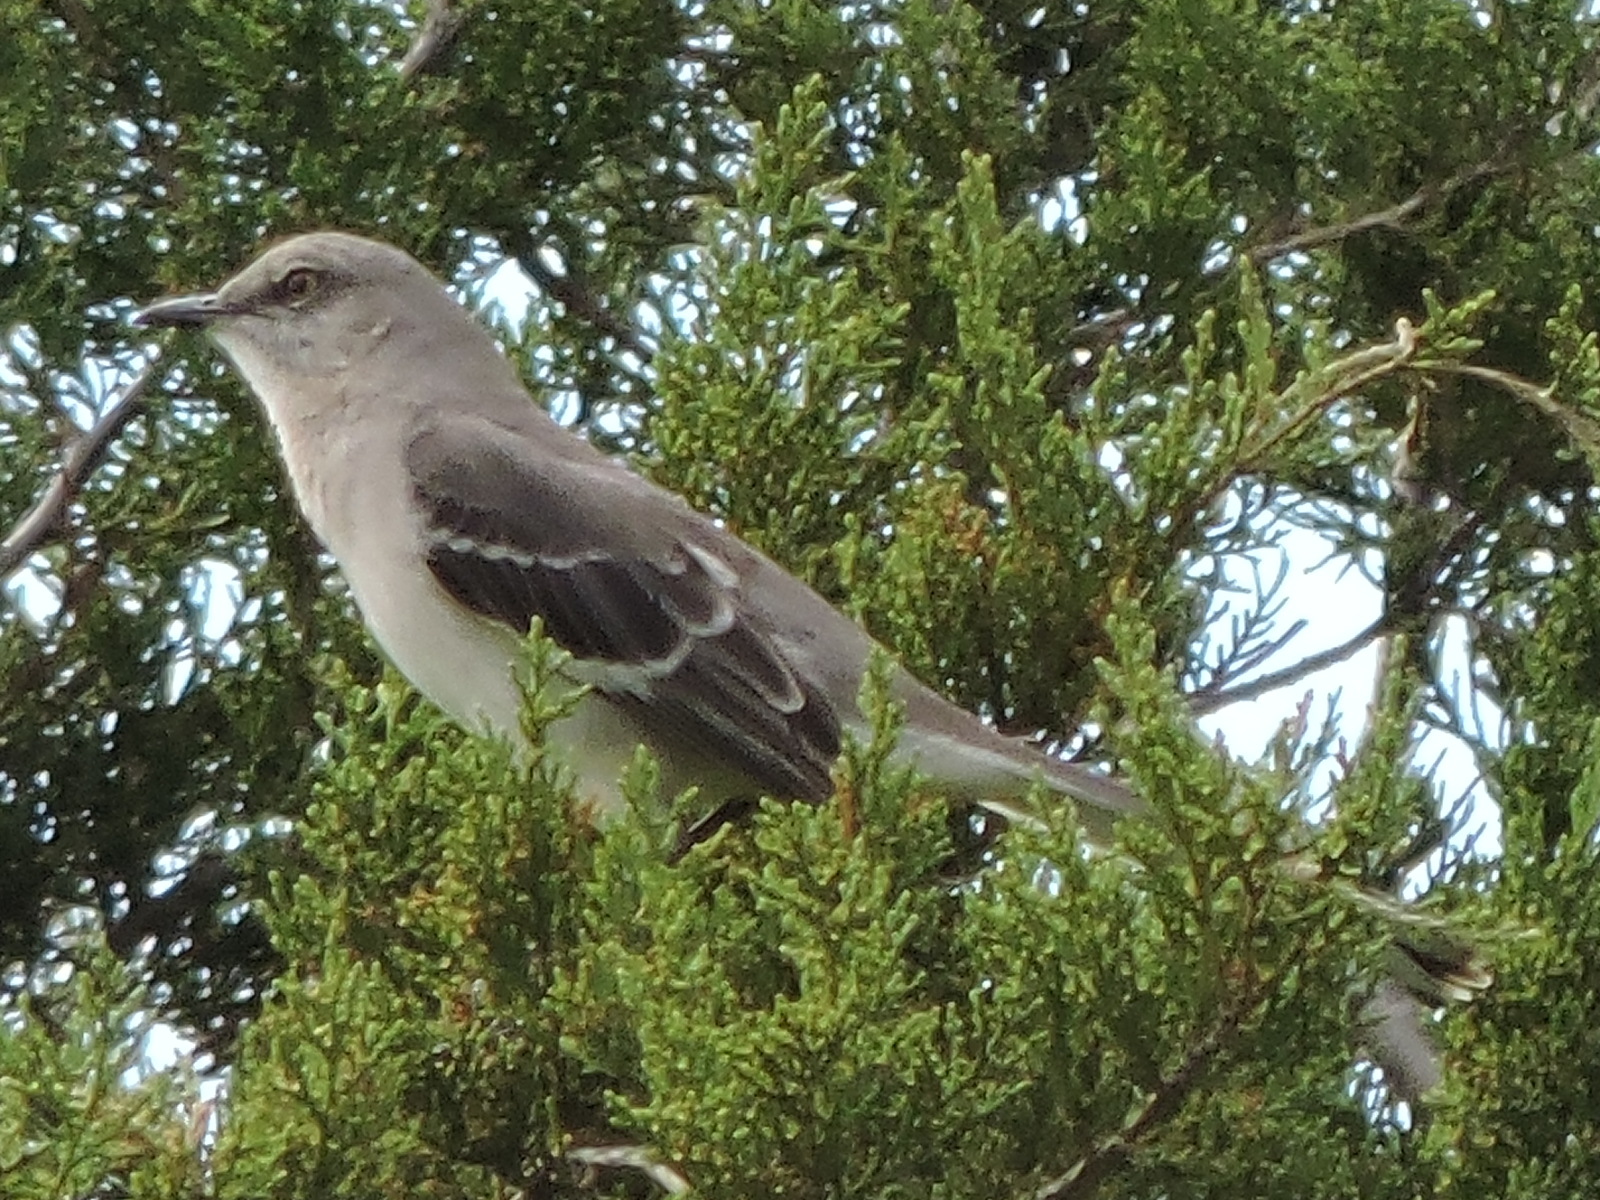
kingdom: Animalia
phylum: Chordata
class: Aves
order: Passeriformes
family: Mimidae
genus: Mimus
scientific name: Mimus polyglottos
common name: Northern mockingbird
